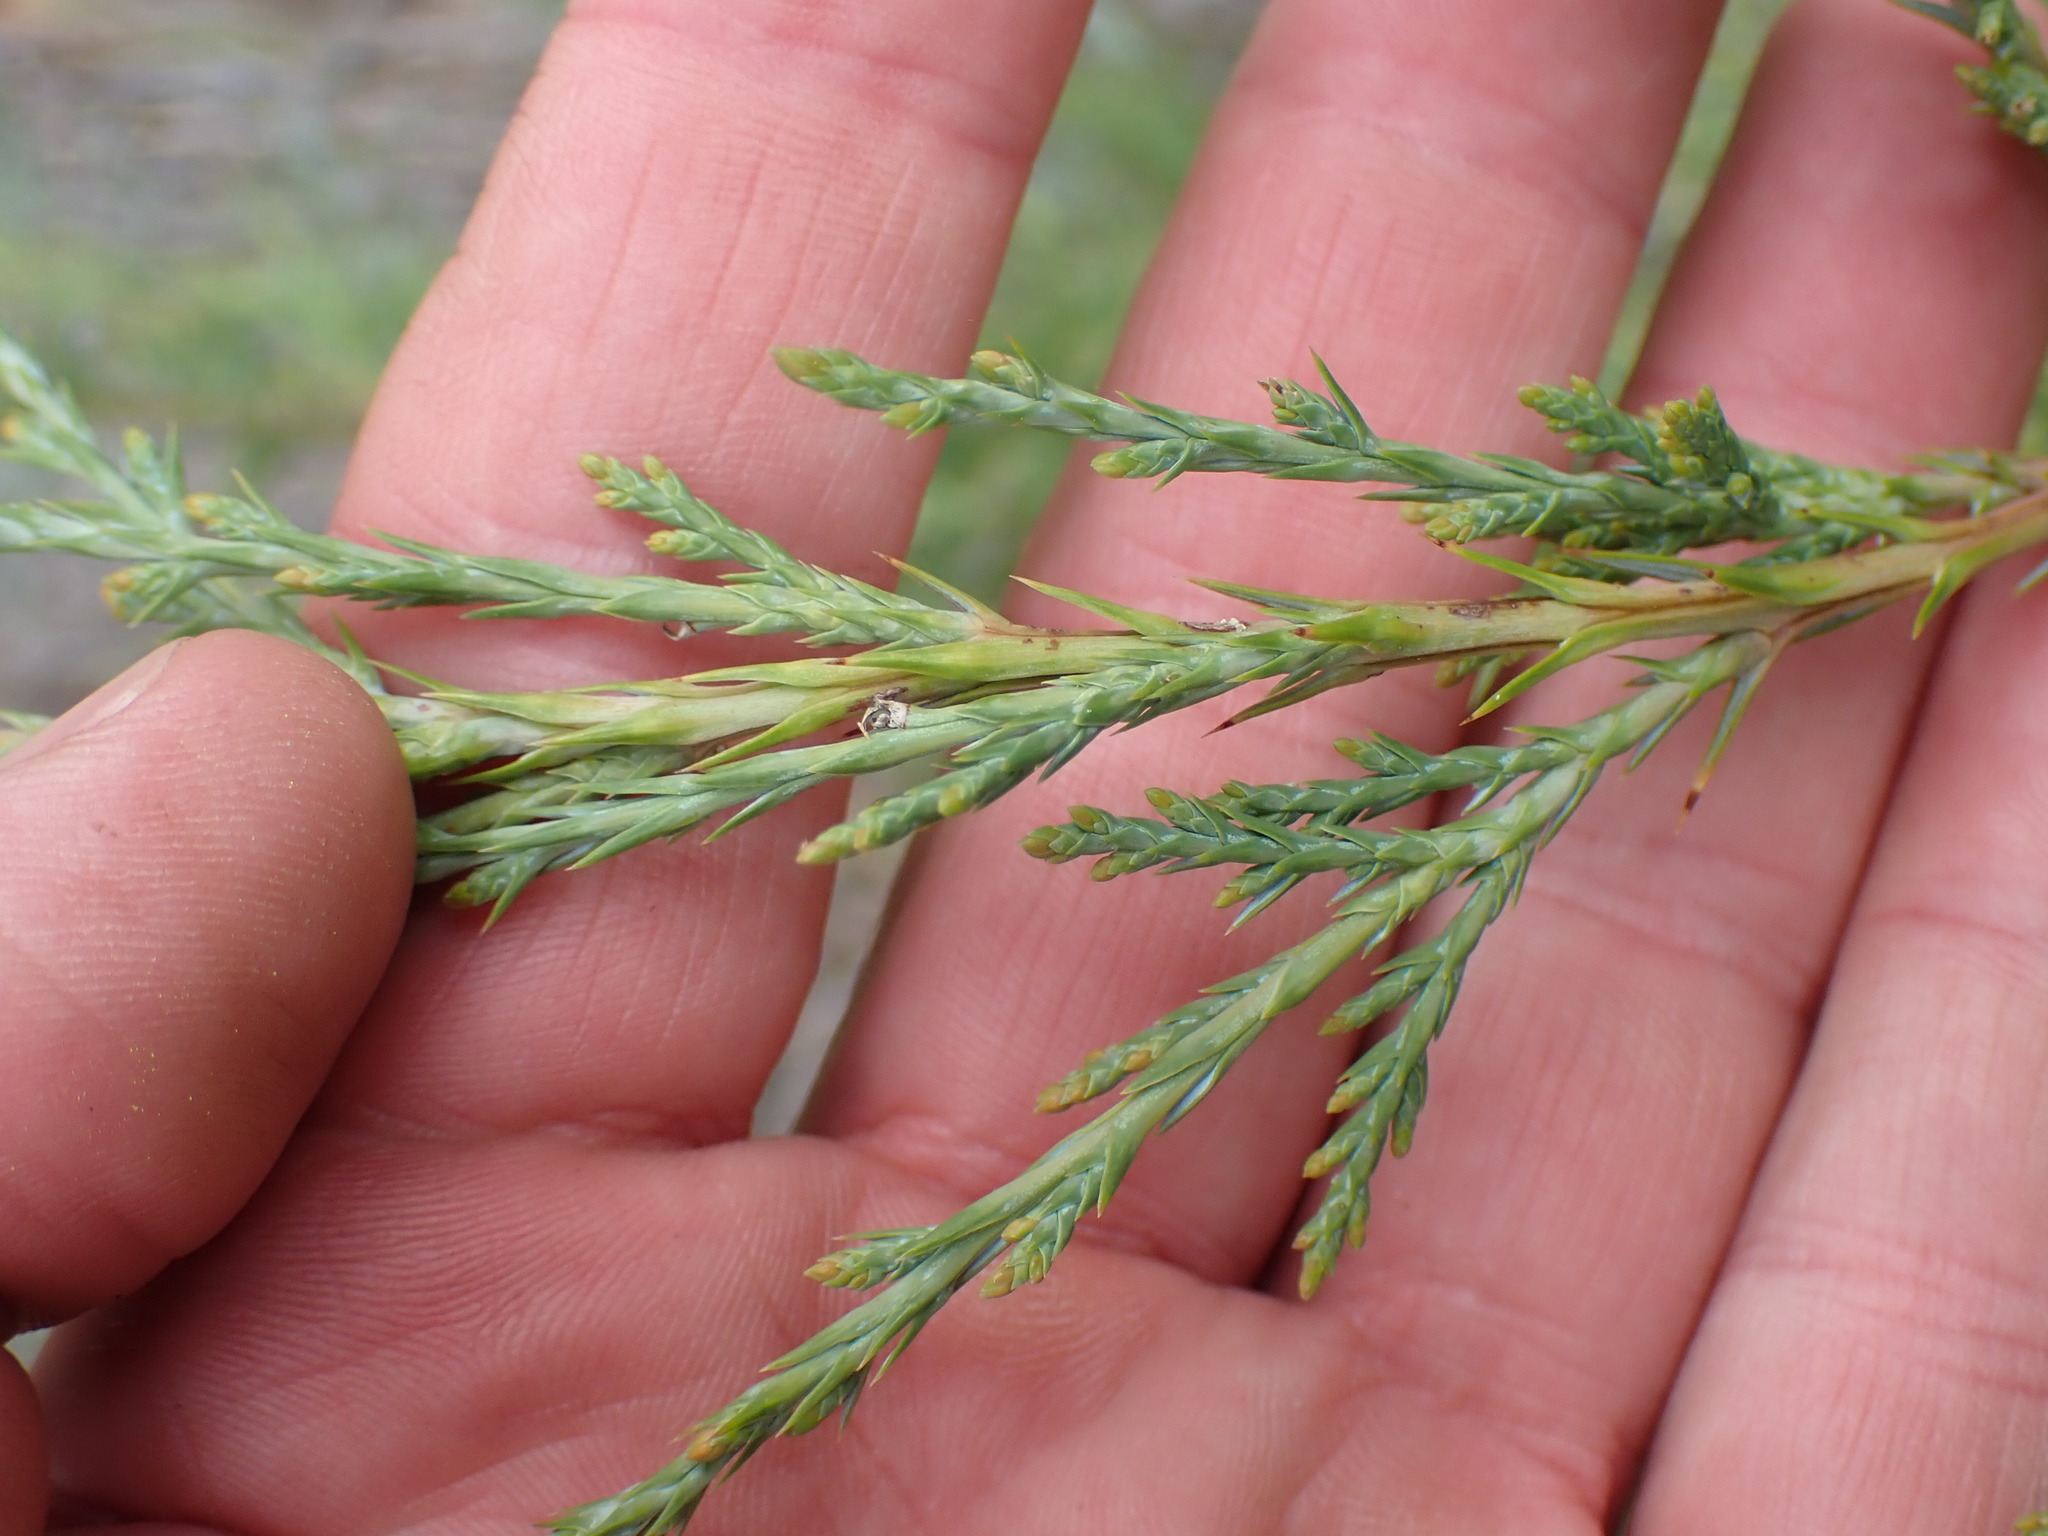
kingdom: Plantae
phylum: Tracheophyta
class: Pinopsida
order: Pinales
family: Cupressaceae
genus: Juniperus
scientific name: Juniperus scopulorum
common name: Rocky mountain juniper
